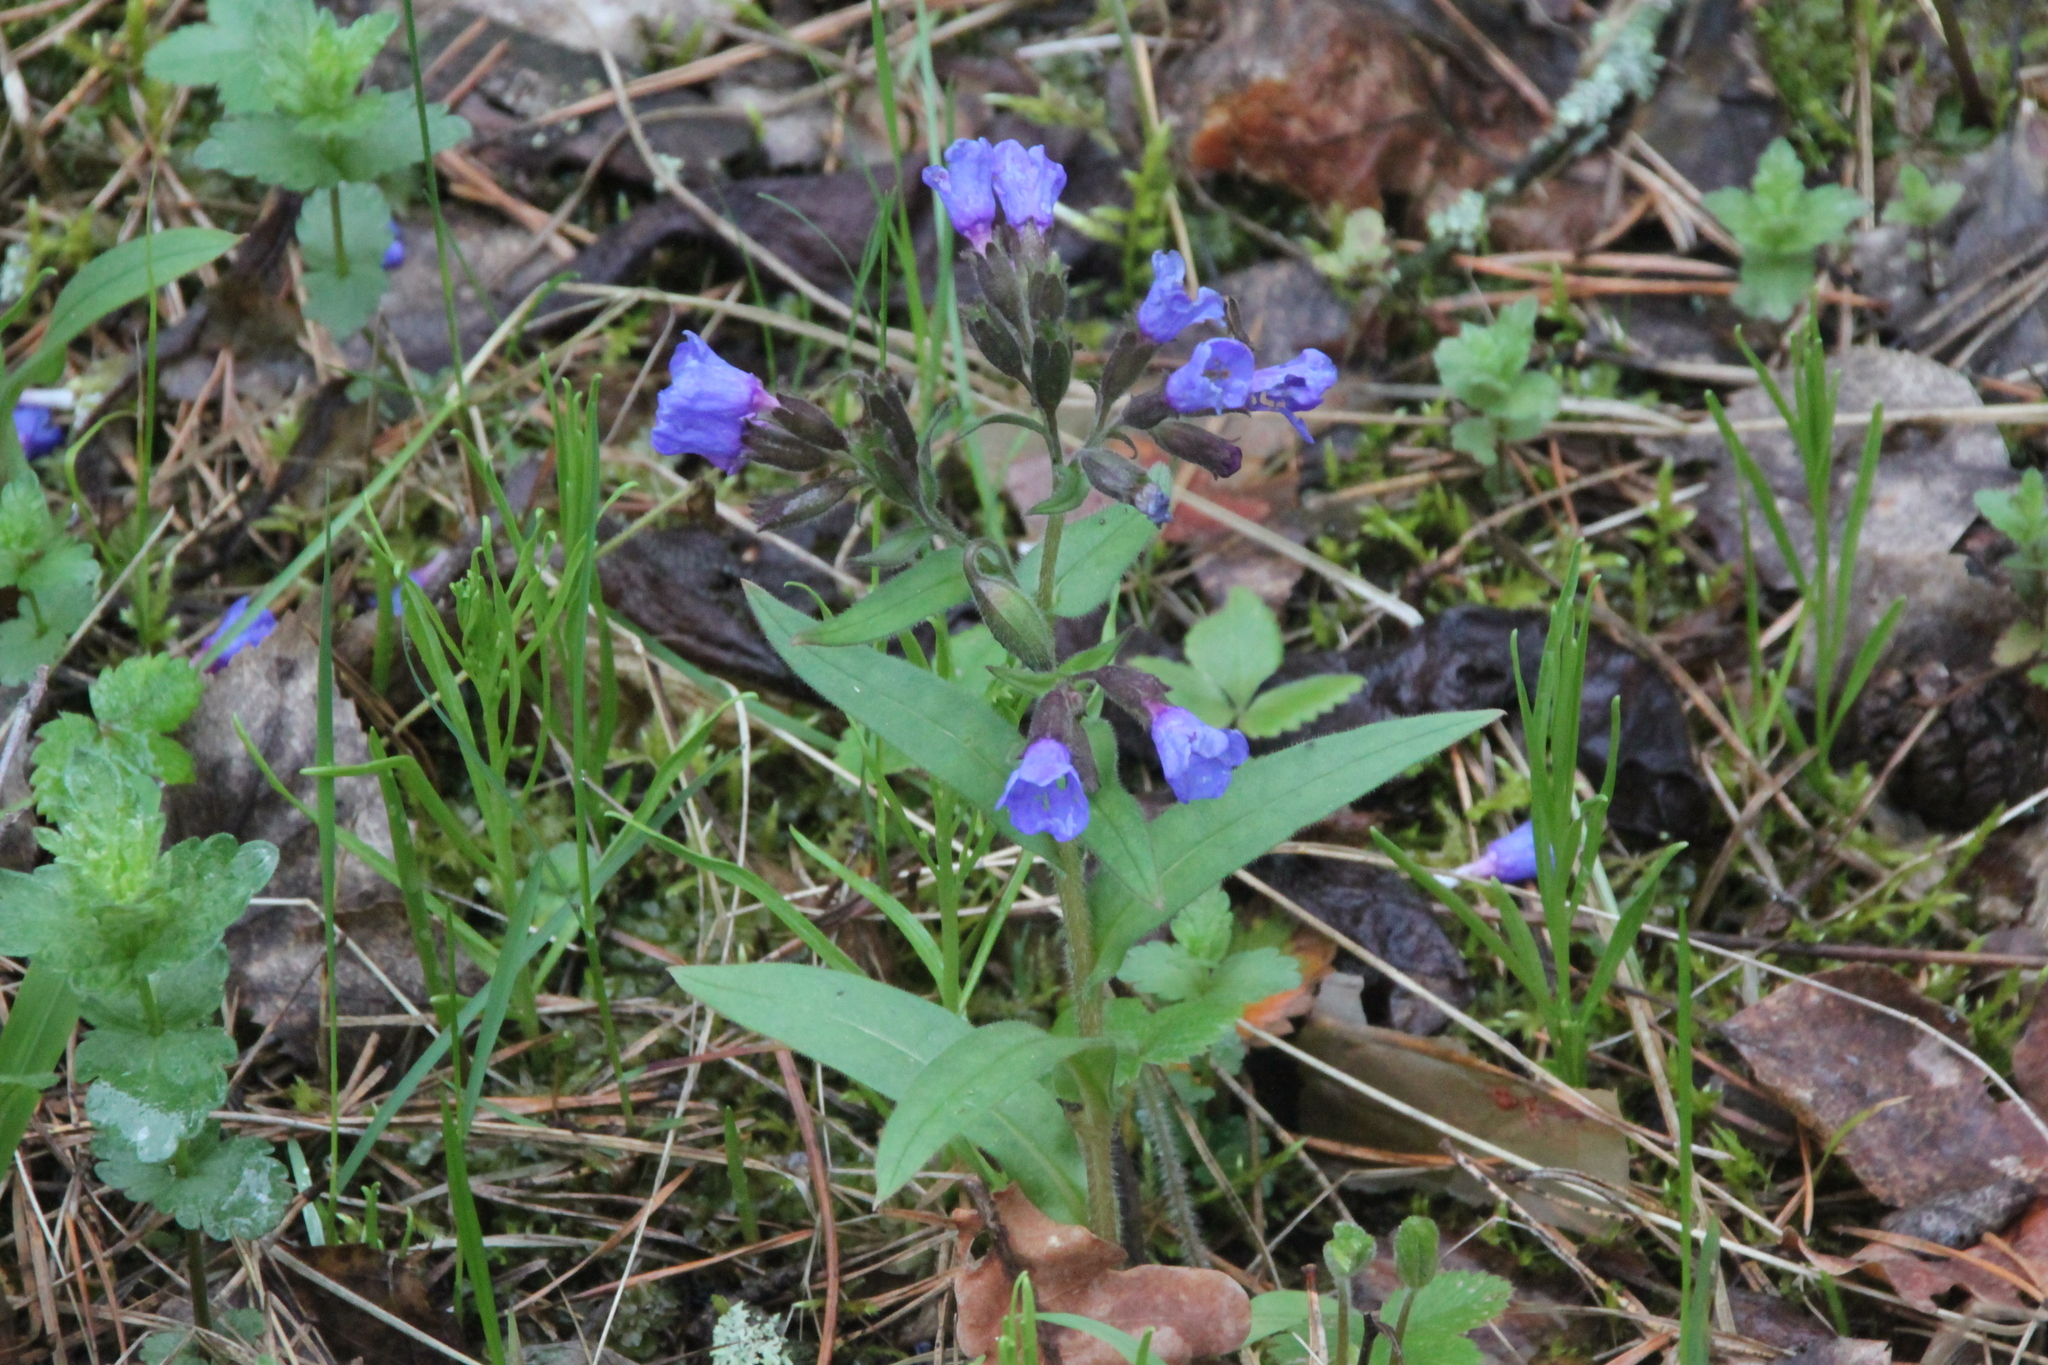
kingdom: Plantae
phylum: Tracheophyta
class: Magnoliopsida
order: Boraginales
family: Boraginaceae
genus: Pulmonaria
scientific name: Pulmonaria angustifolia
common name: Blue cowslip
